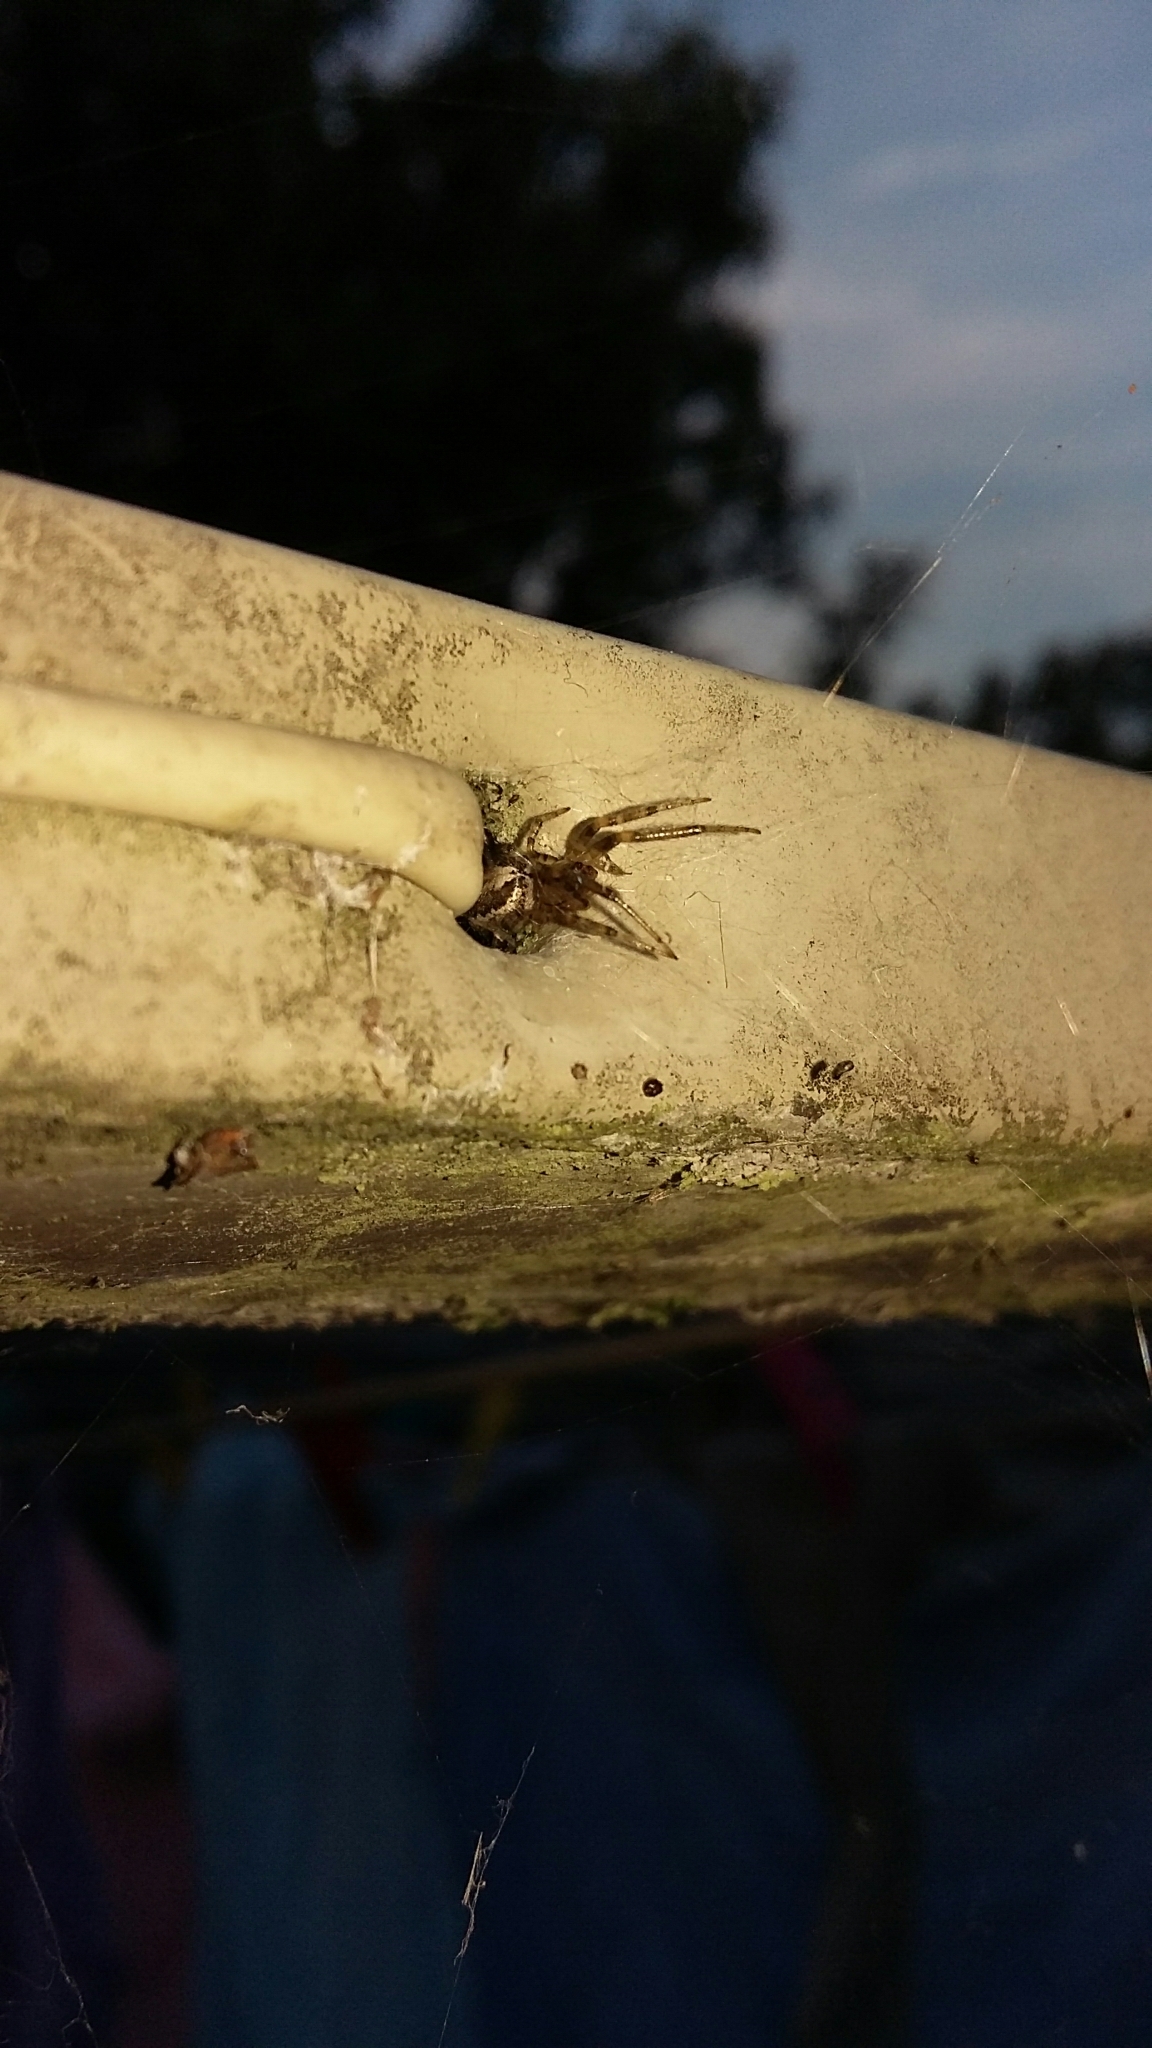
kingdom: Animalia
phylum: Arthropoda
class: Arachnida
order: Araneae
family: Araneidae
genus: Zygiella
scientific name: Zygiella x-notata
